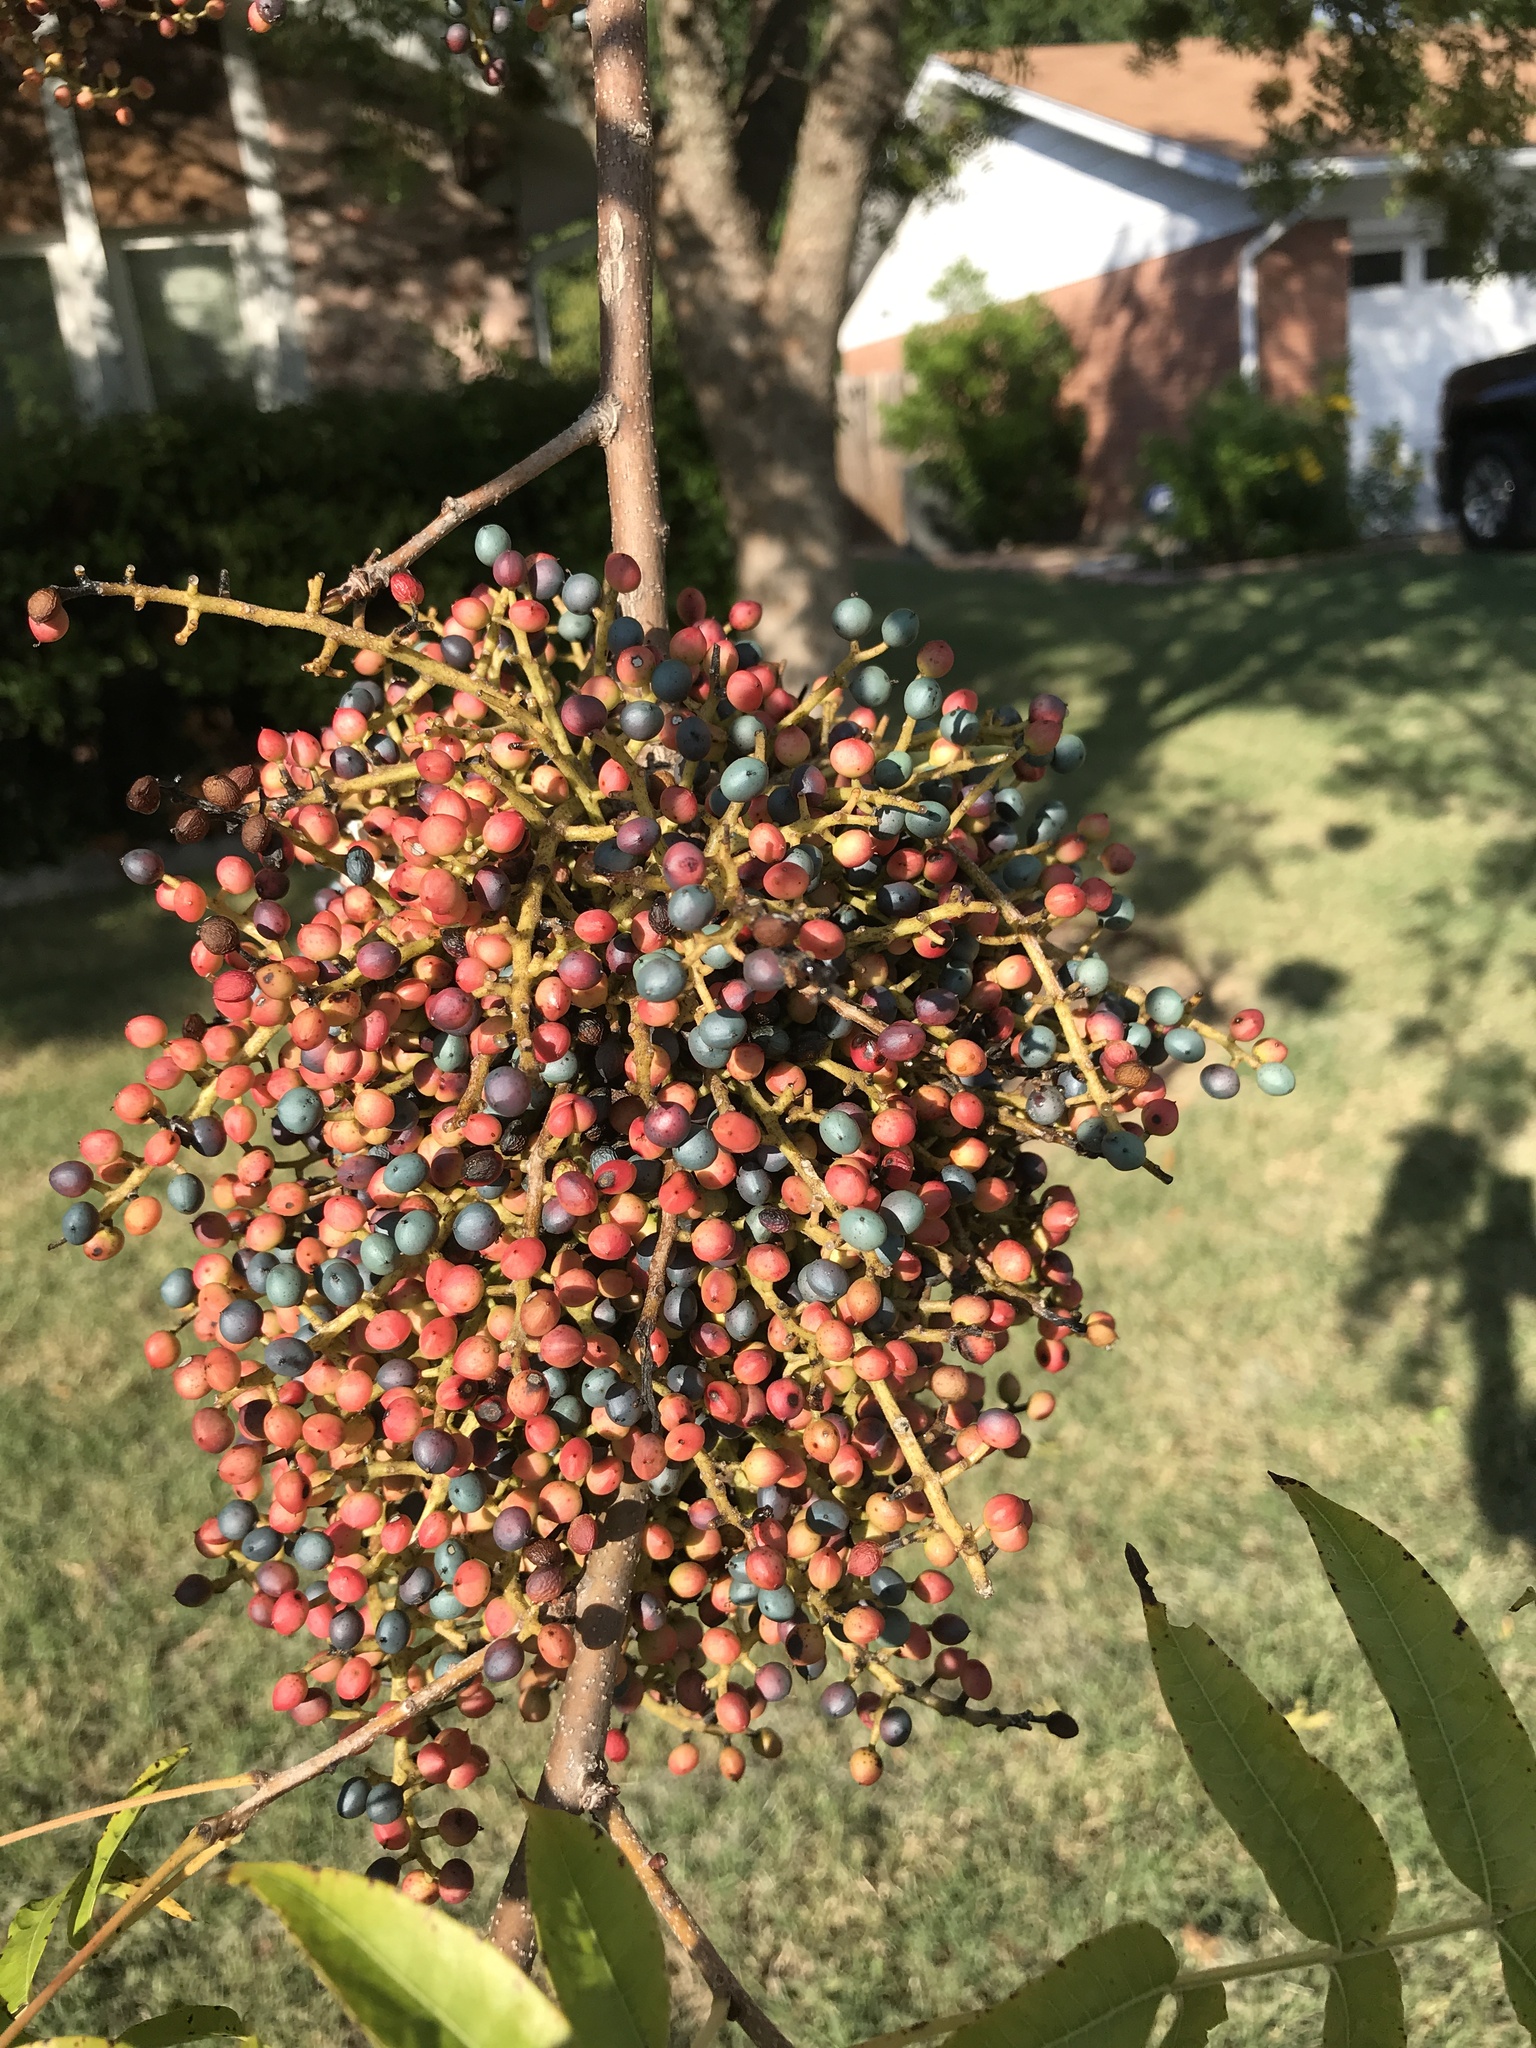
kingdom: Plantae
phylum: Tracheophyta
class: Magnoliopsida
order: Sapindales
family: Anacardiaceae
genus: Pistacia
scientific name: Pistacia chinensis
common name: Chinese pistache
